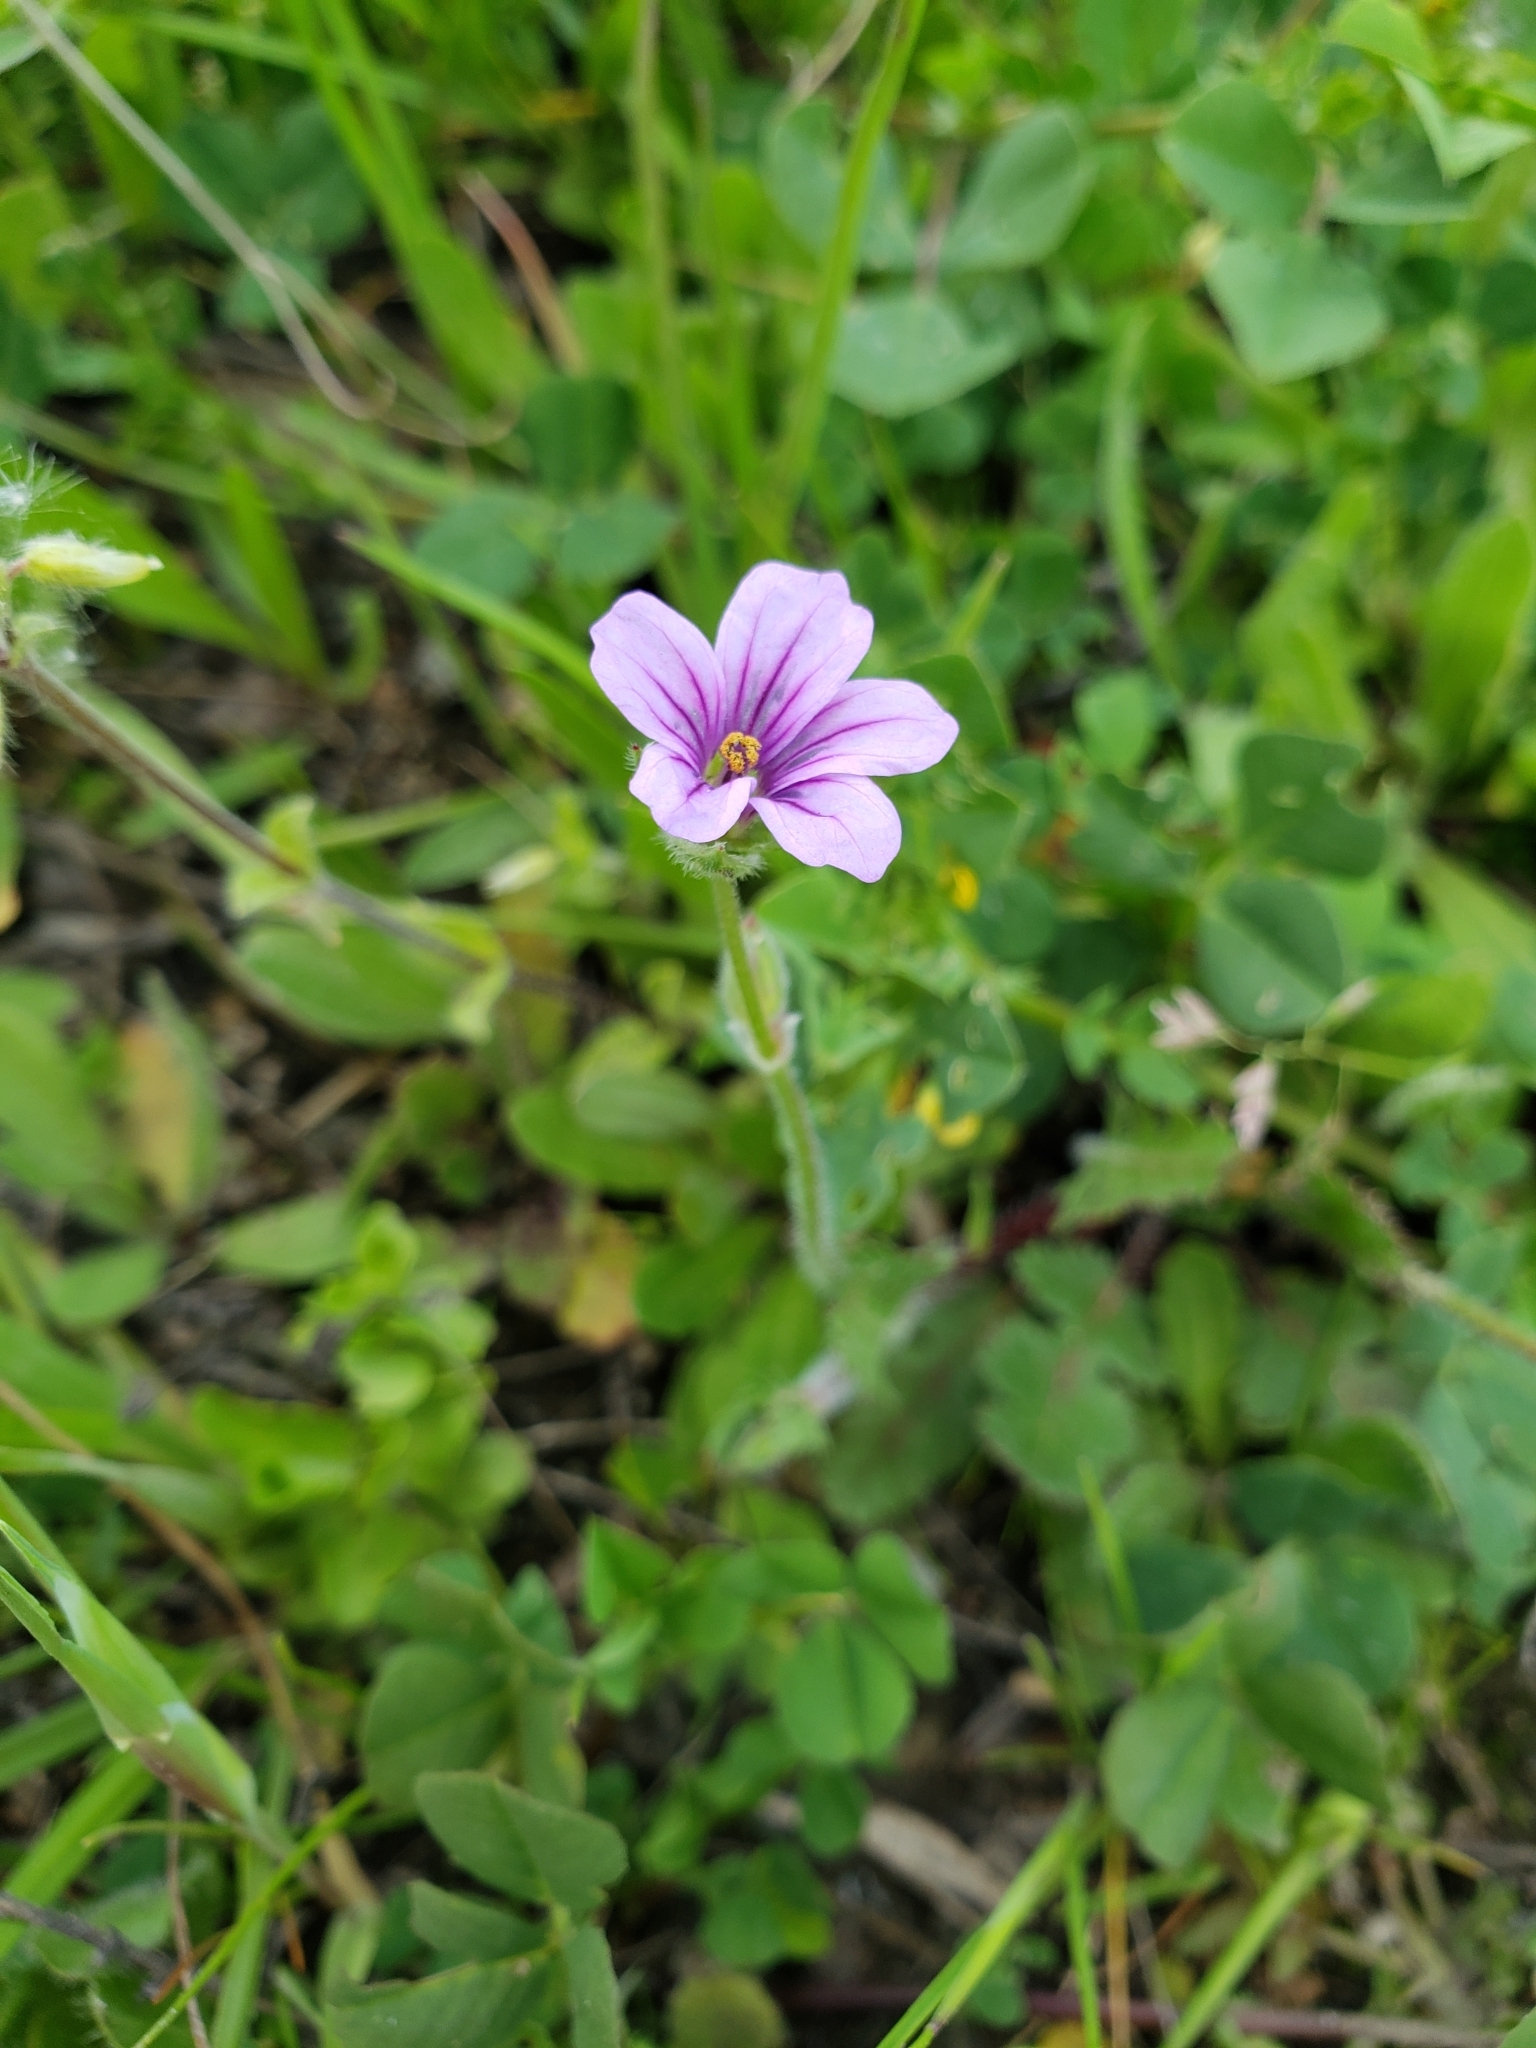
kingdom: Plantae
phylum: Tracheophyta
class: Magnoliopsida
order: Geraniales
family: Geraniaceae
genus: Erodium
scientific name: Erodium botrys
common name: Mediterranean stork's-bill
